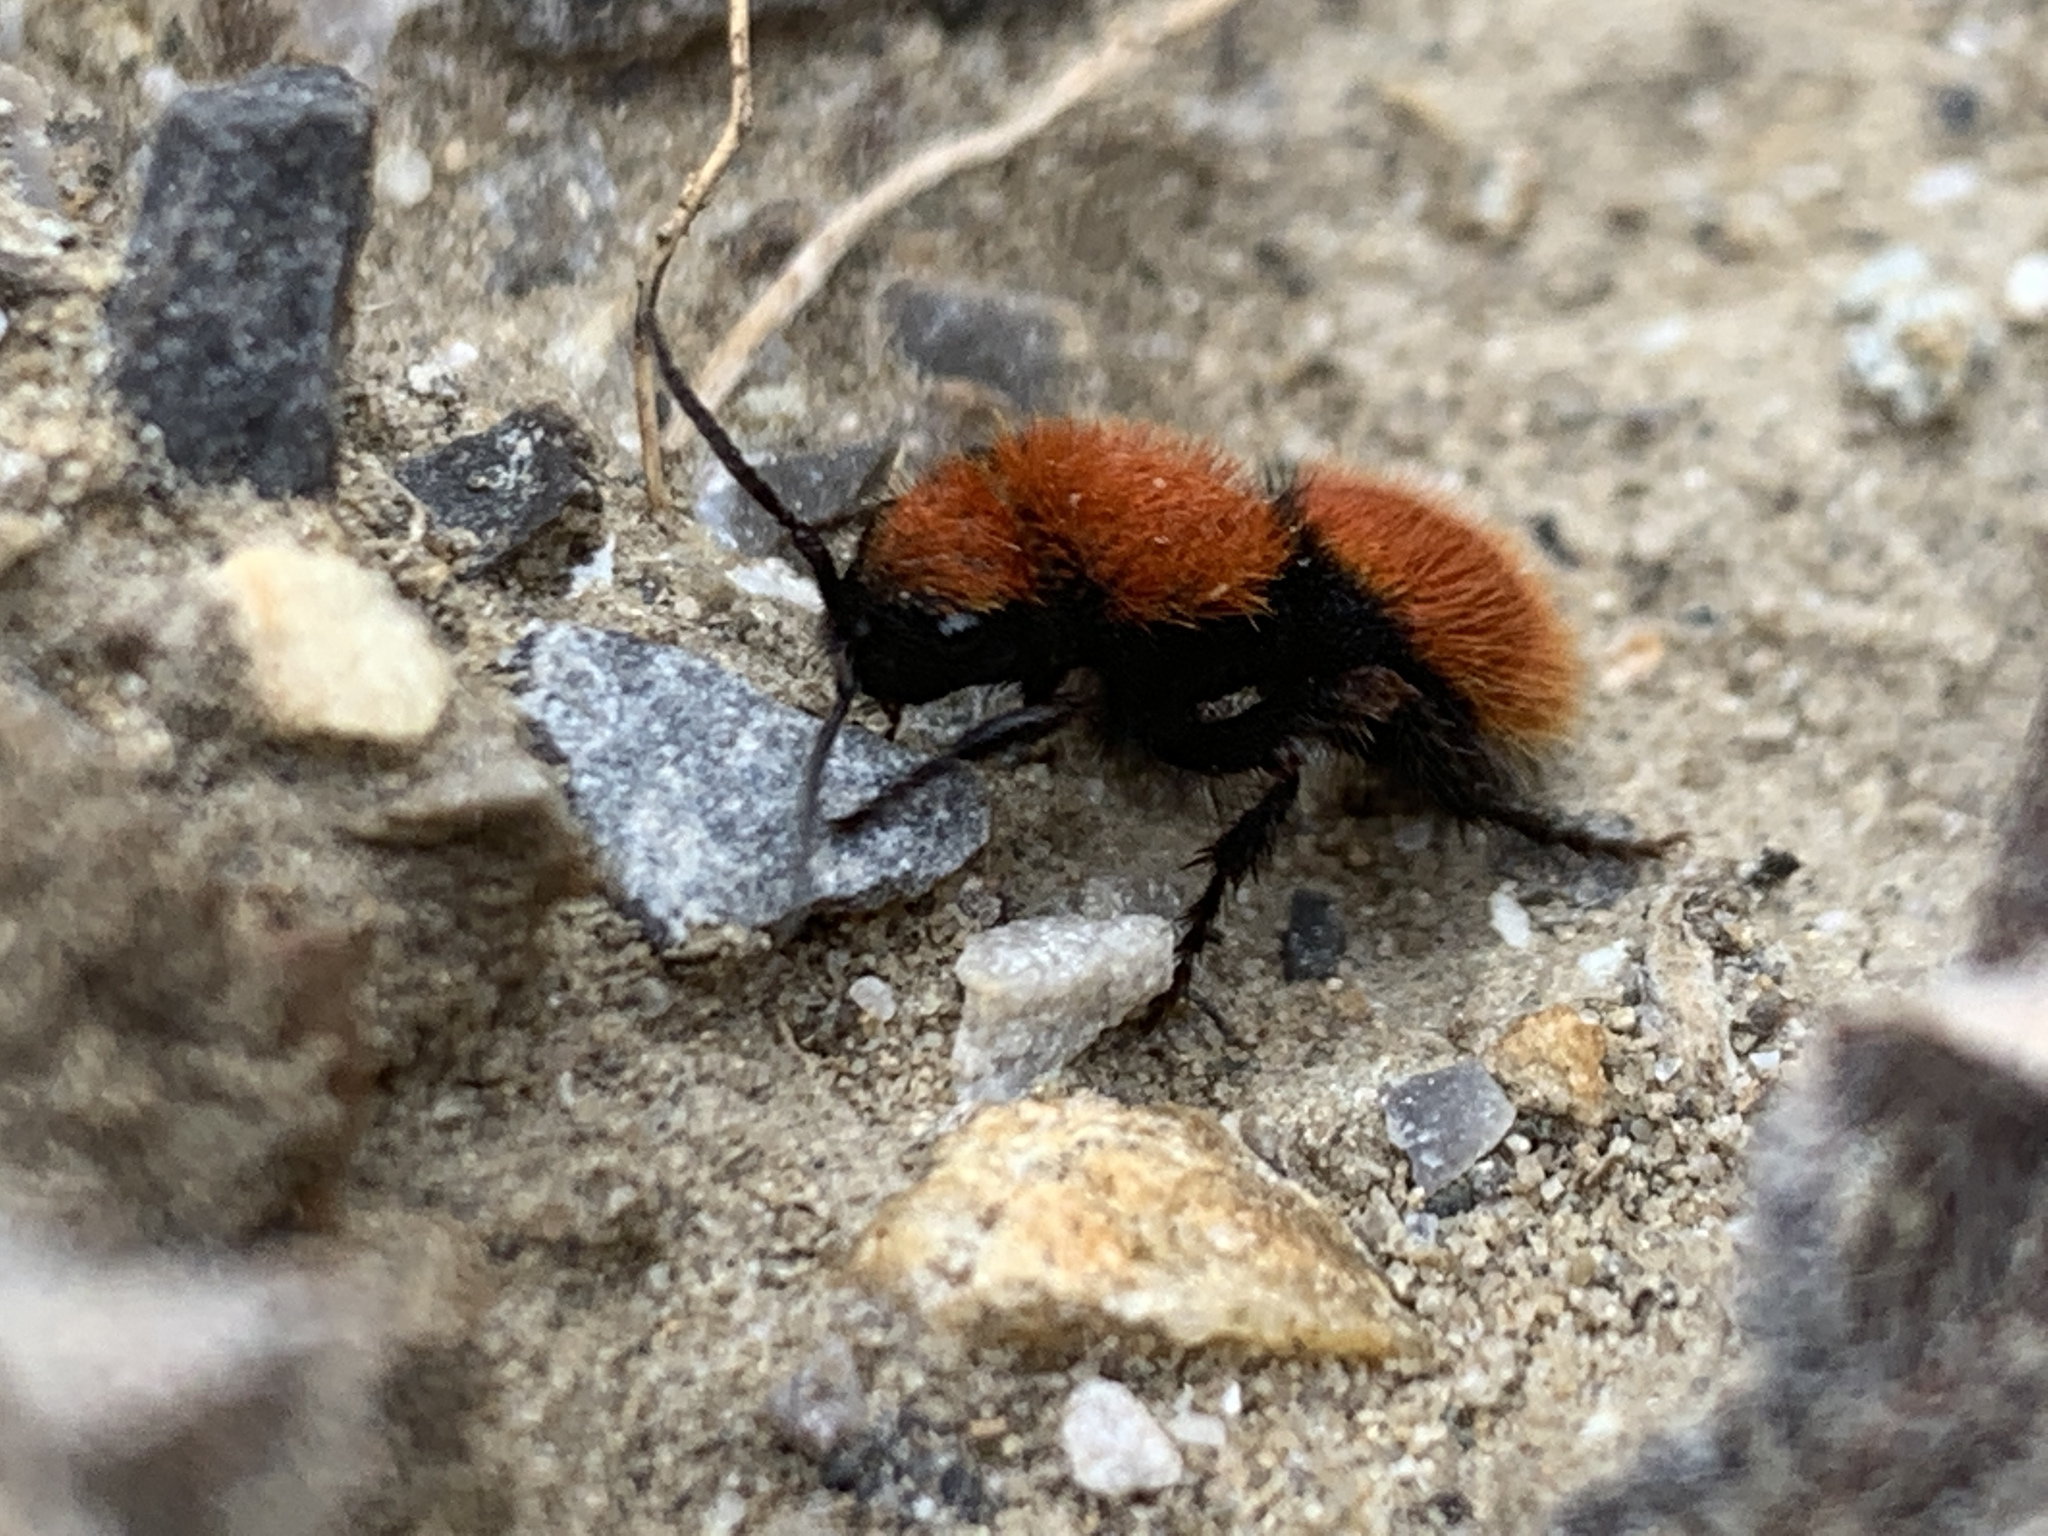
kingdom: Animalia
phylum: Arthropoda
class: Insecta
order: Hymenoptera
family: Mutillidae
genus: Dasymutilla
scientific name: Dasymutilla vestita
